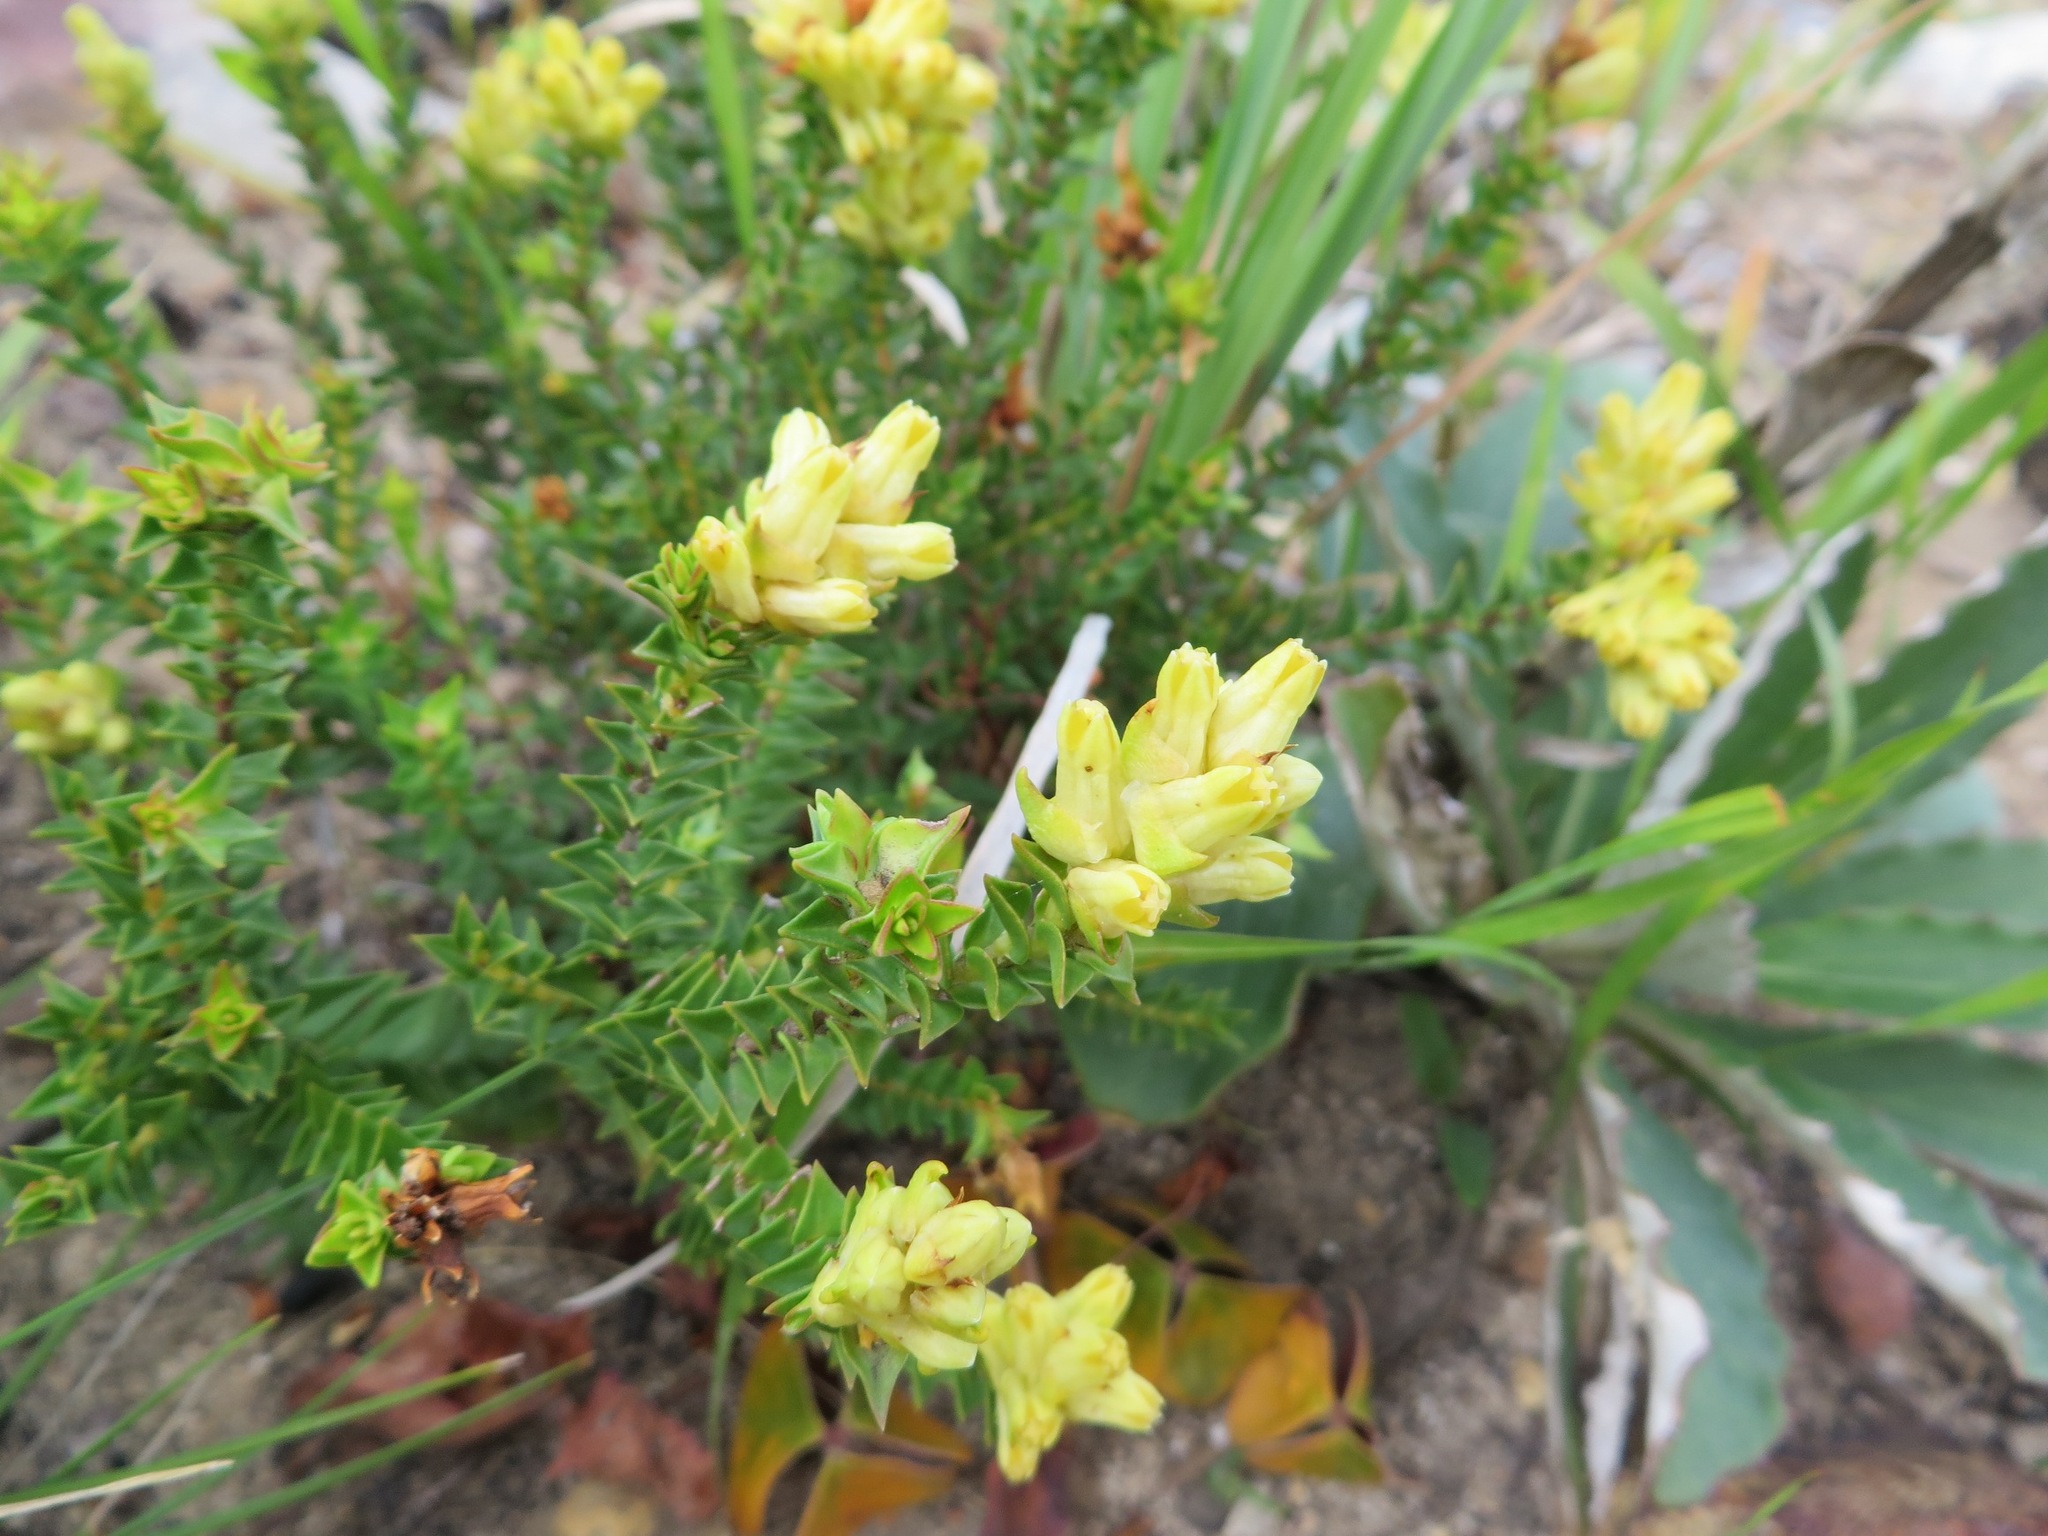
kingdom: Plantae
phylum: Tracheophyta
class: Magnoliopsida
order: Myrtales
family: Penaeaceae
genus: Penaea
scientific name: Penaea mucronata
